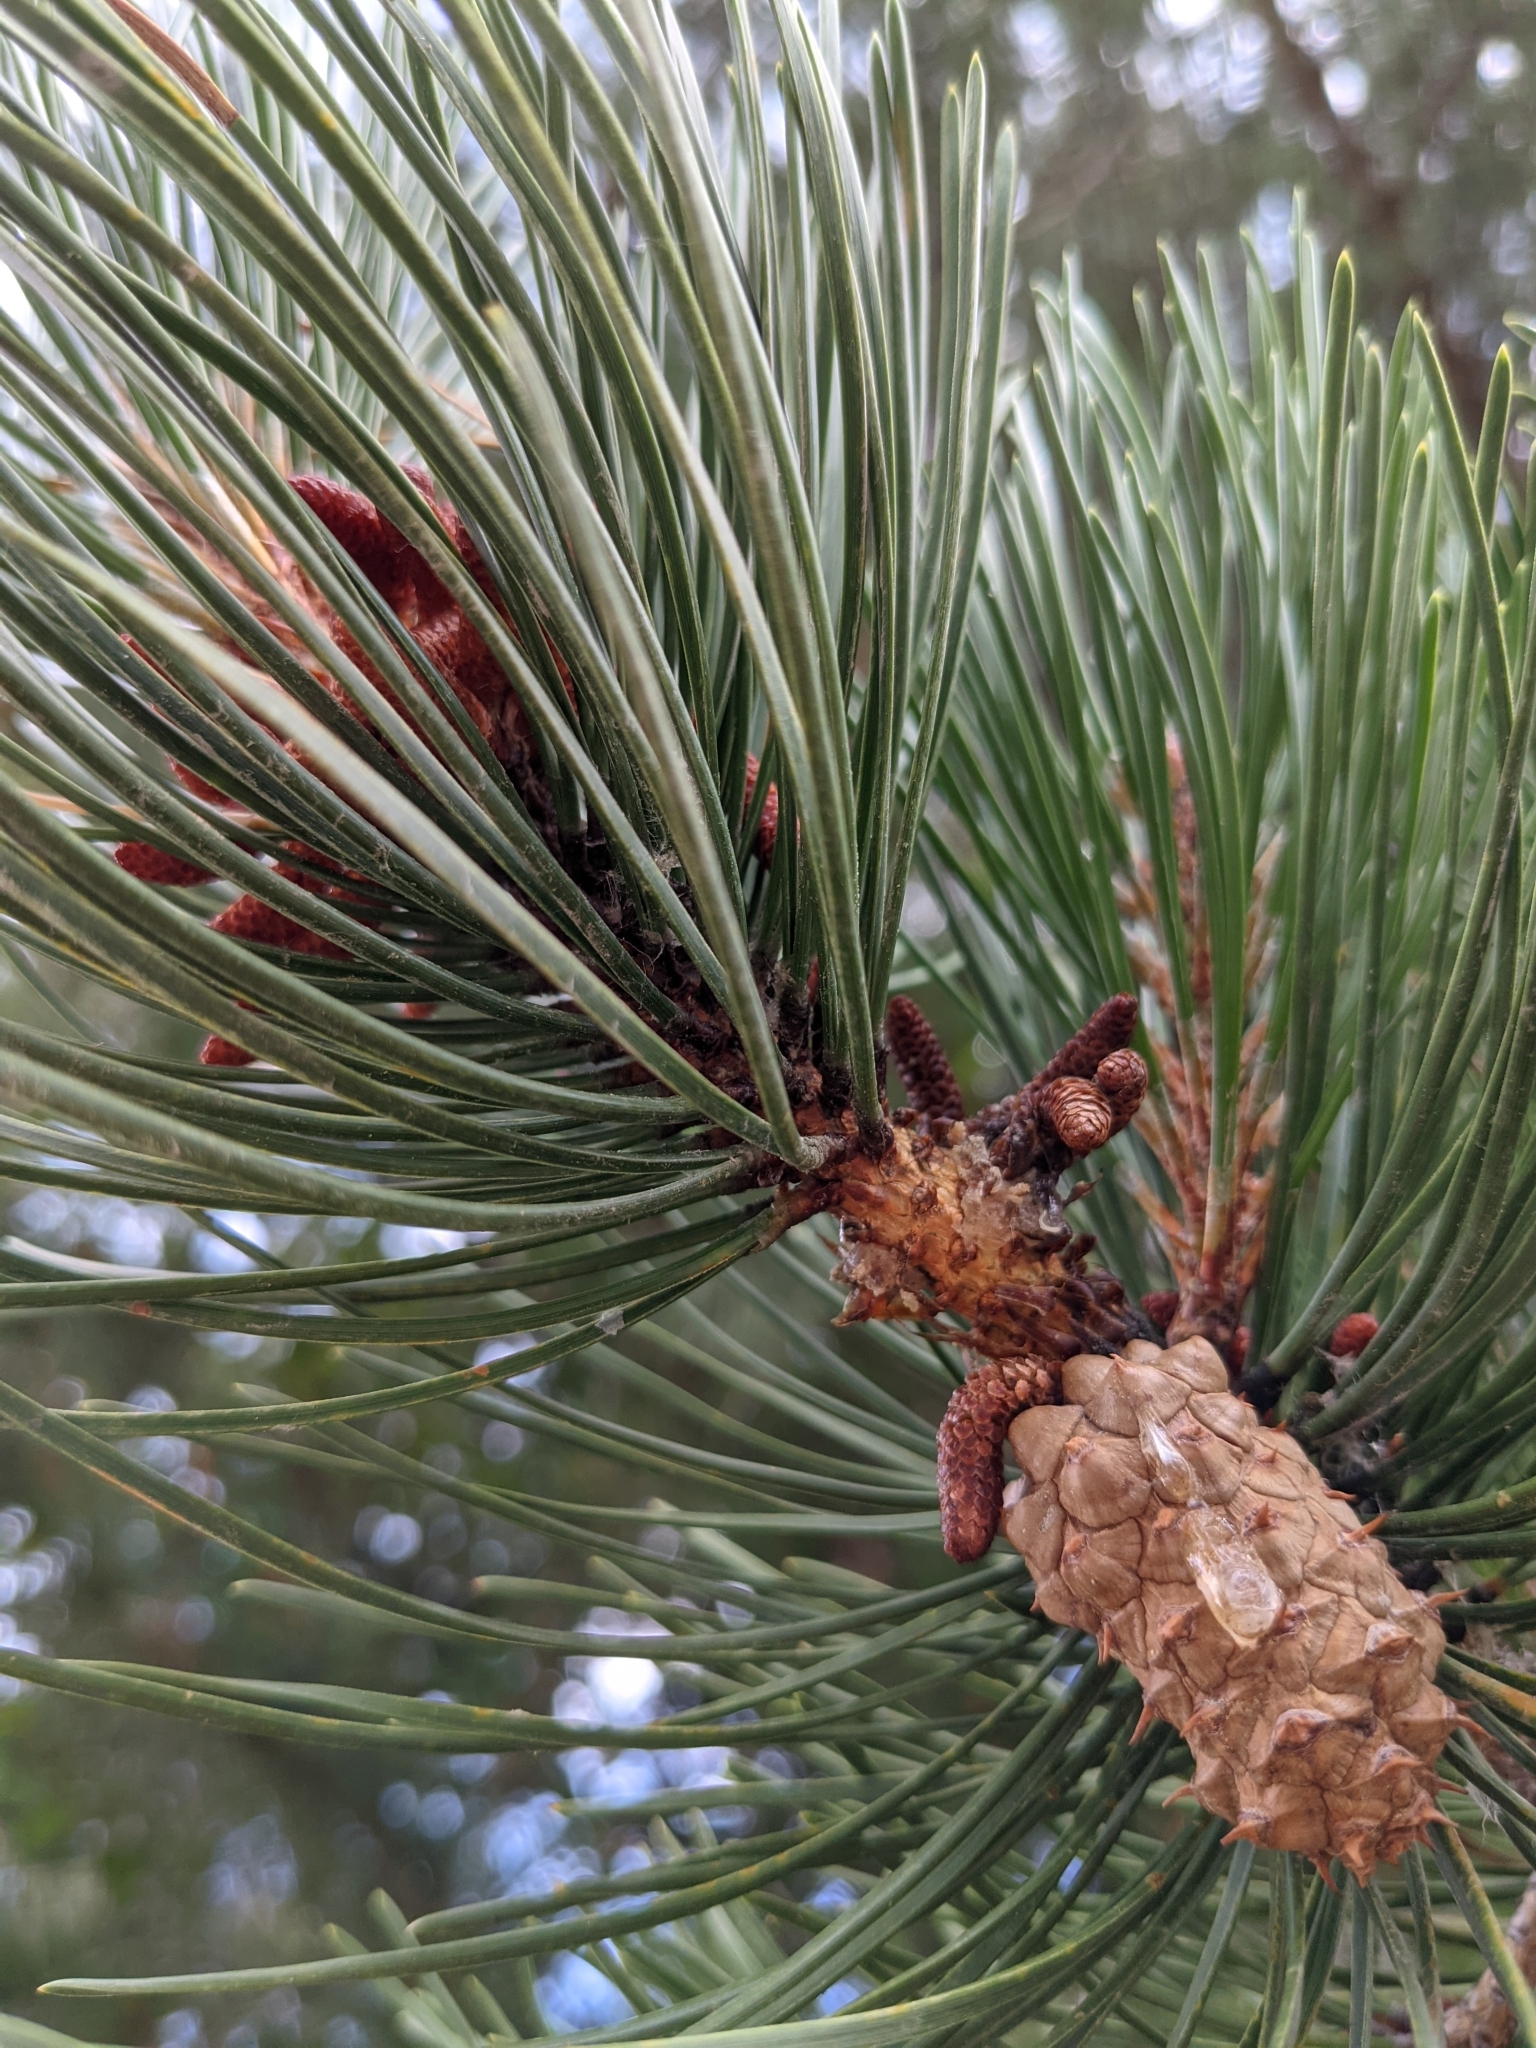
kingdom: Plantae
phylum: Tracheophyta
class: Pinopsida
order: Pinales
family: Pinaceae
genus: Pinus
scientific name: Pinus contorta
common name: Lodgepole pine
